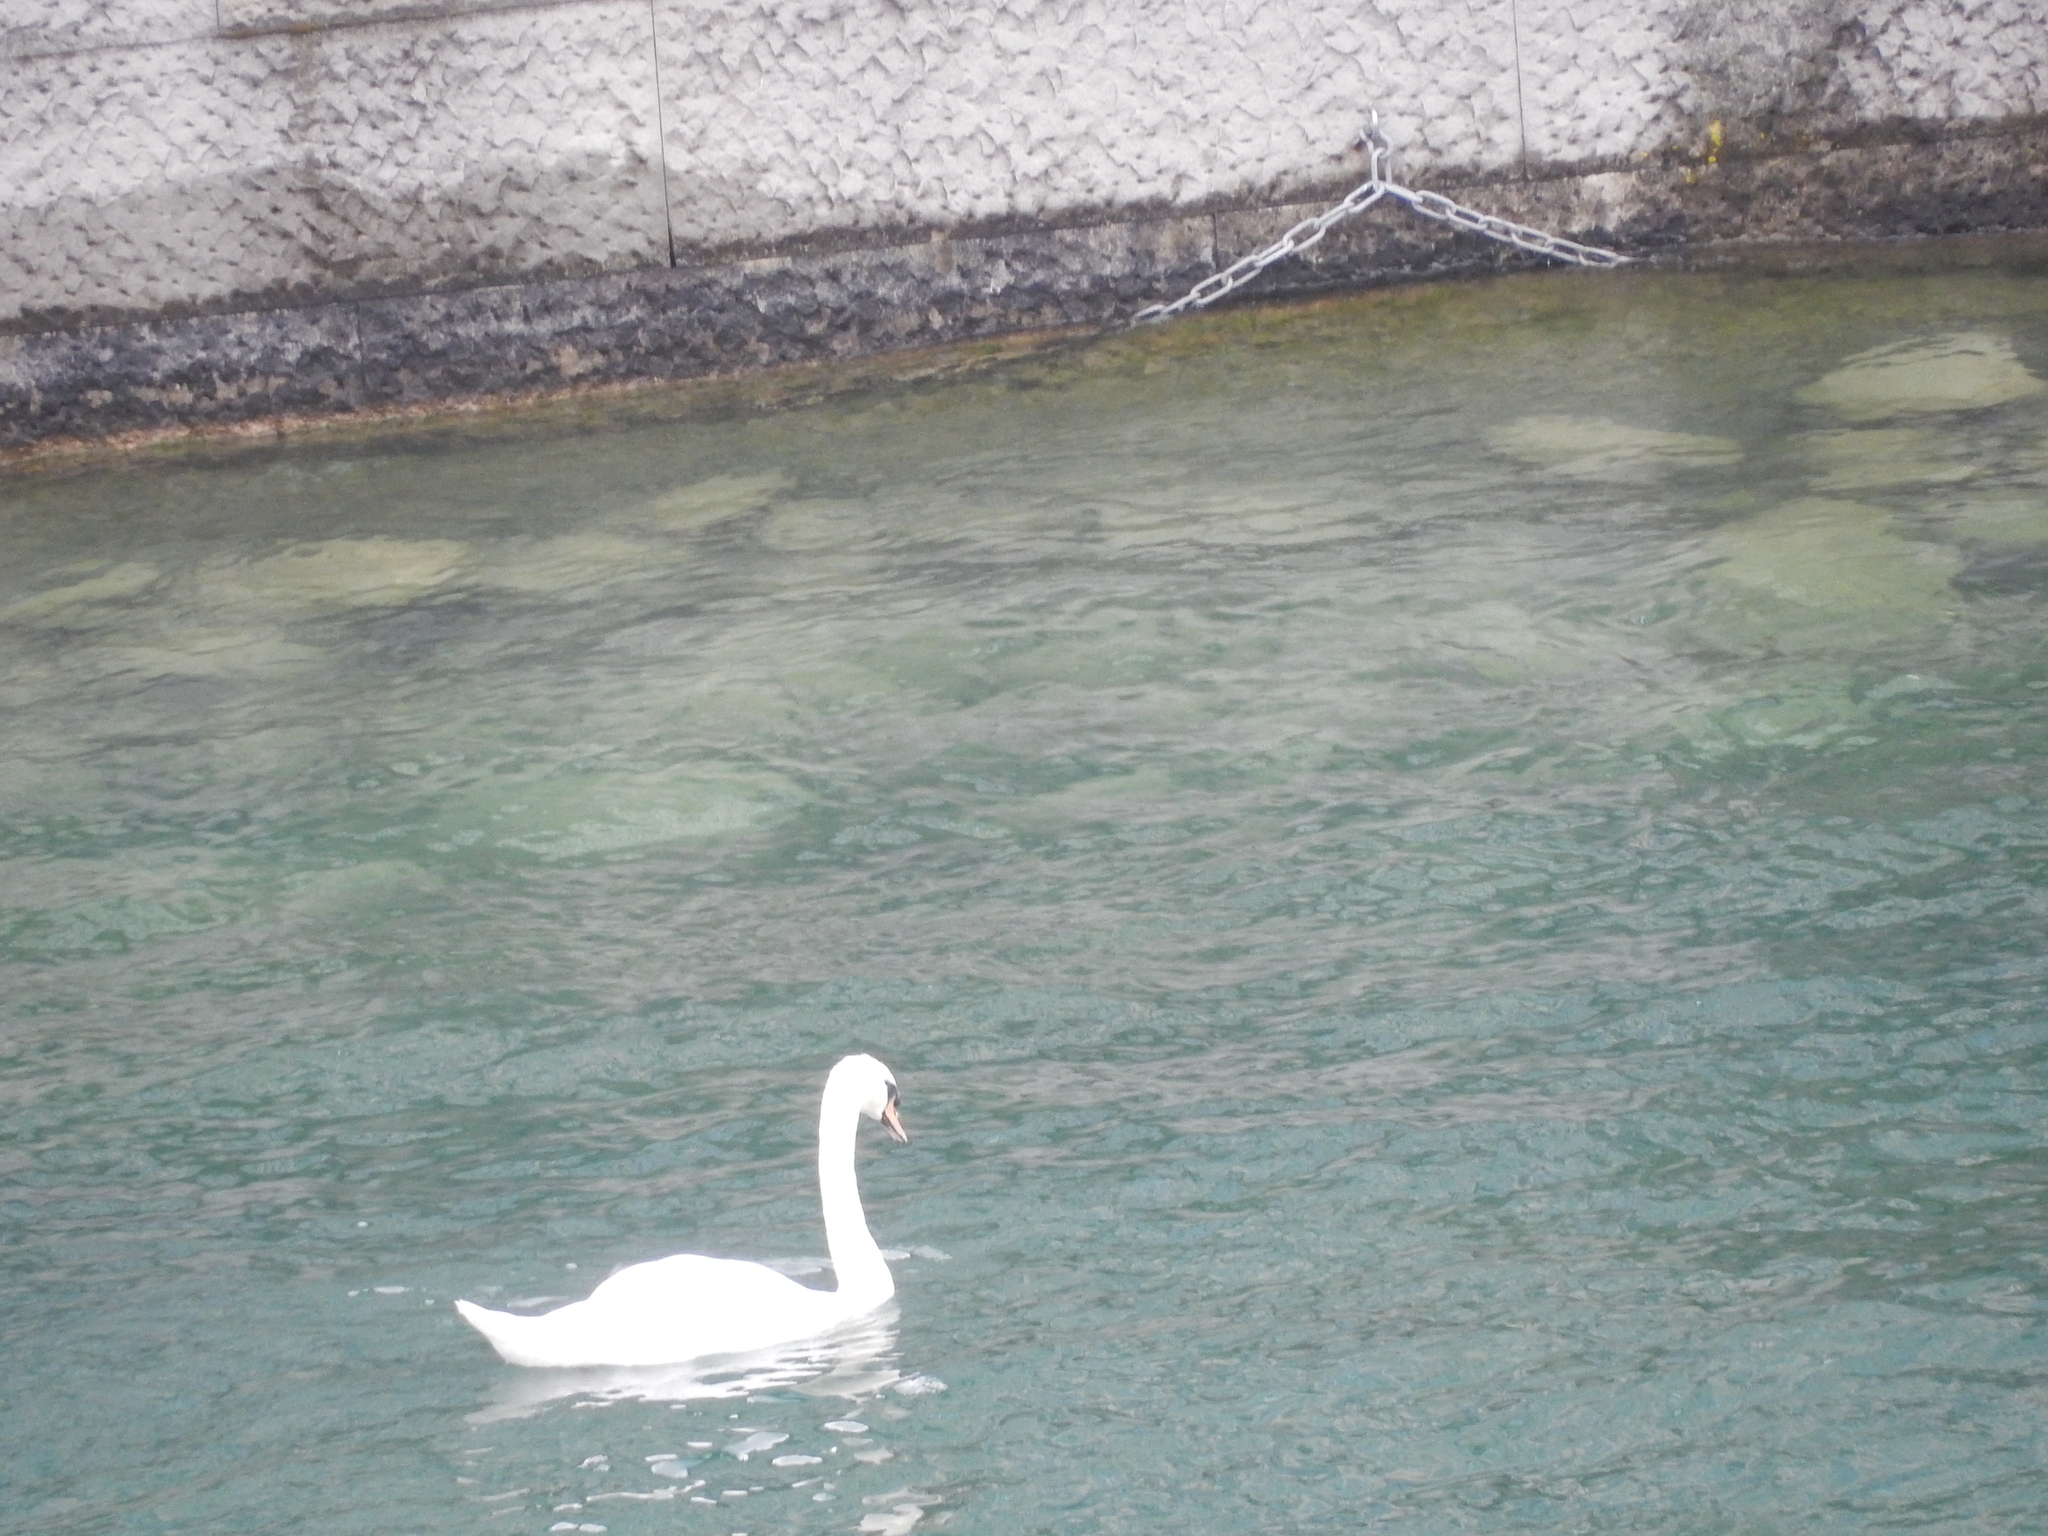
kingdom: Animalia
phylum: Chordata
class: Aves
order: Anseriformes
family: Anatidae
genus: Cygnus
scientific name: Cygnus olor
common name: Mute swan
